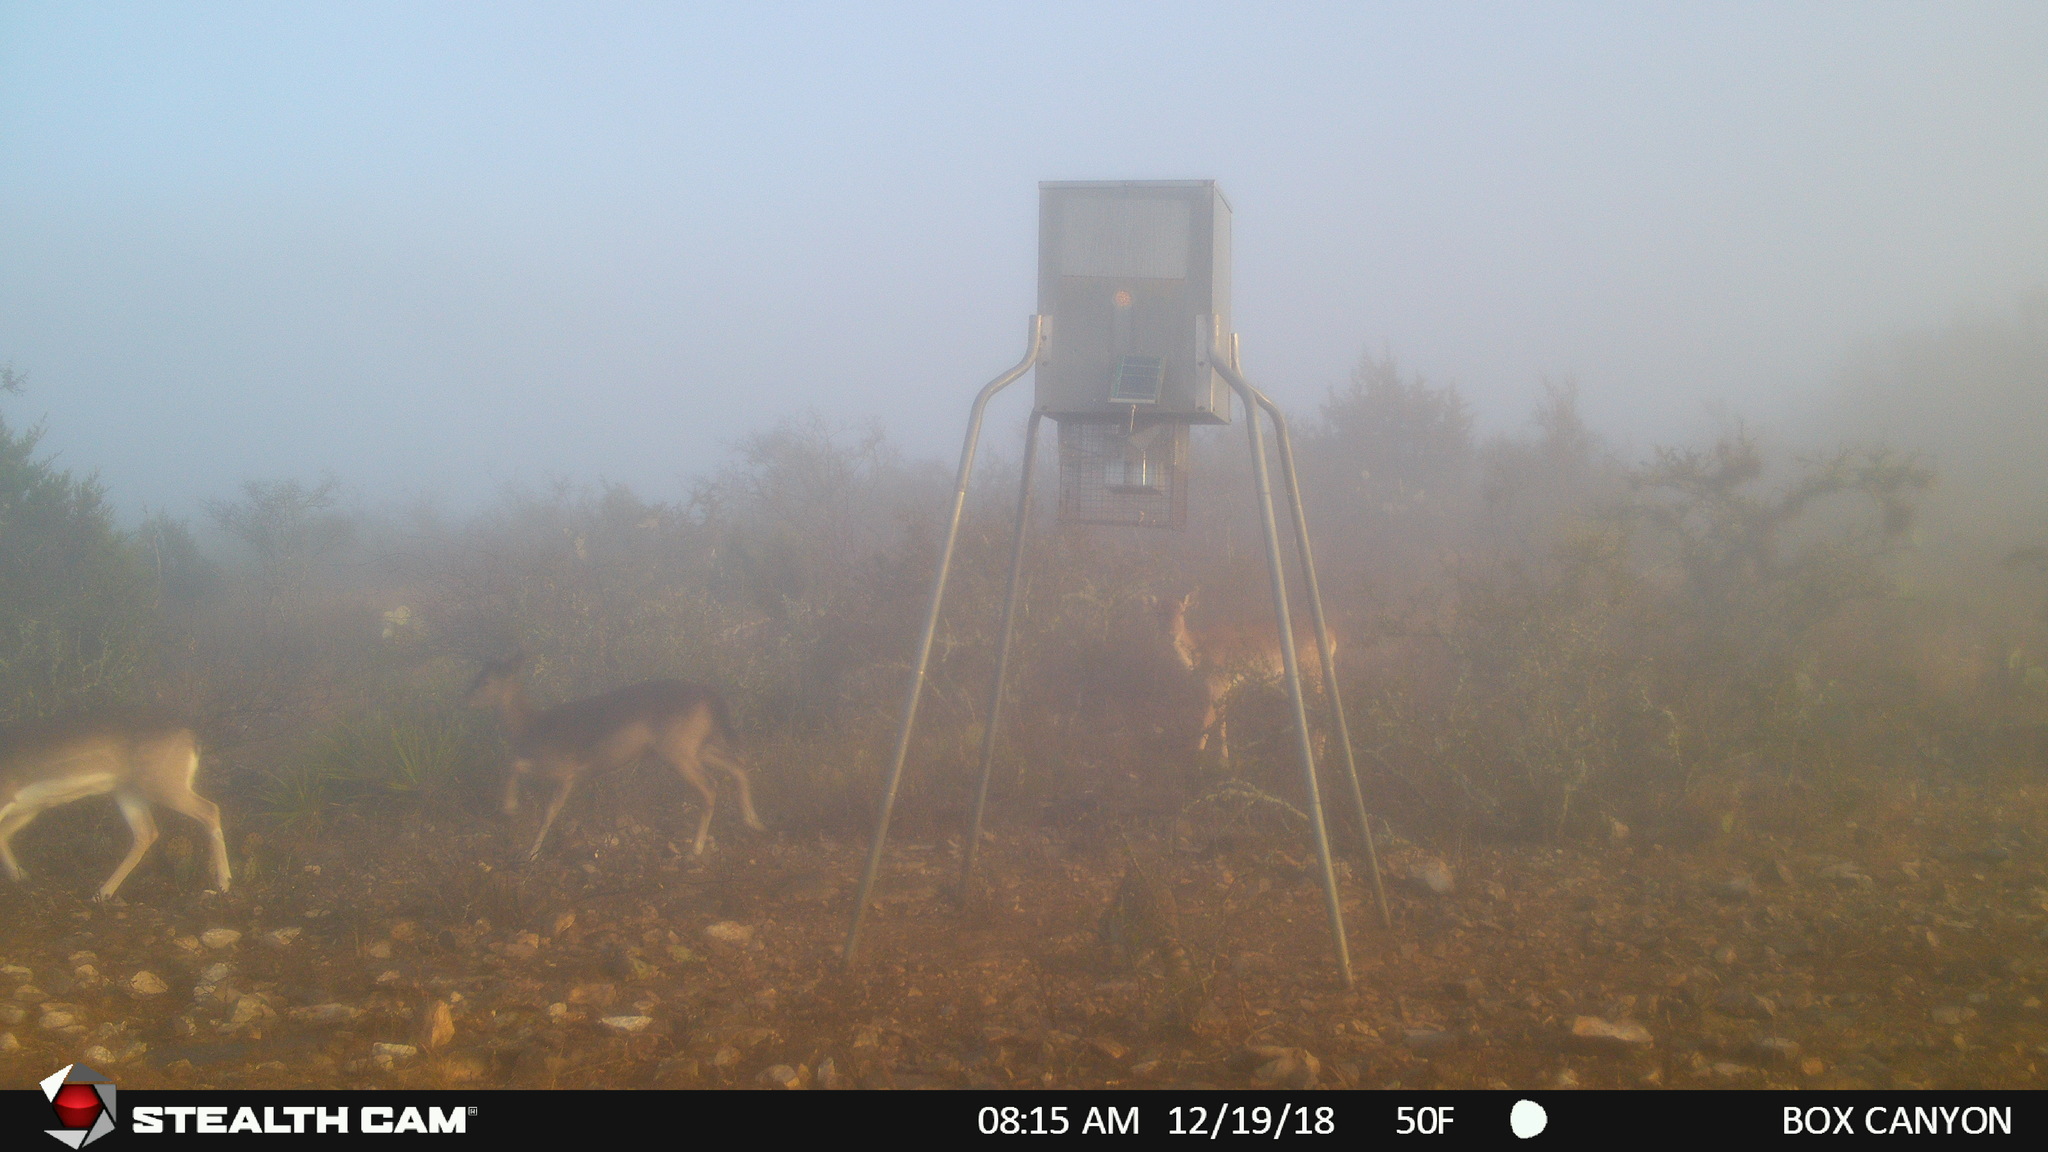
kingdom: Animalia
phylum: Chordata
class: Mammalia
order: Artiodactyla
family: Cervidae
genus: Dama
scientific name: Dama dama
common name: Fallow deer
